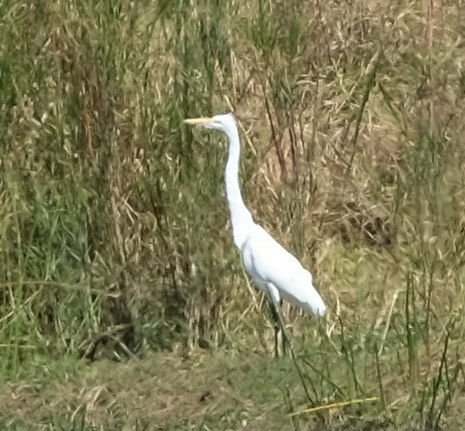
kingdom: Animalia
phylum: Chordata
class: Aves
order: Pelecaniformes
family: Ardeidae
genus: Ardea
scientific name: Ardea alba
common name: Great egret
